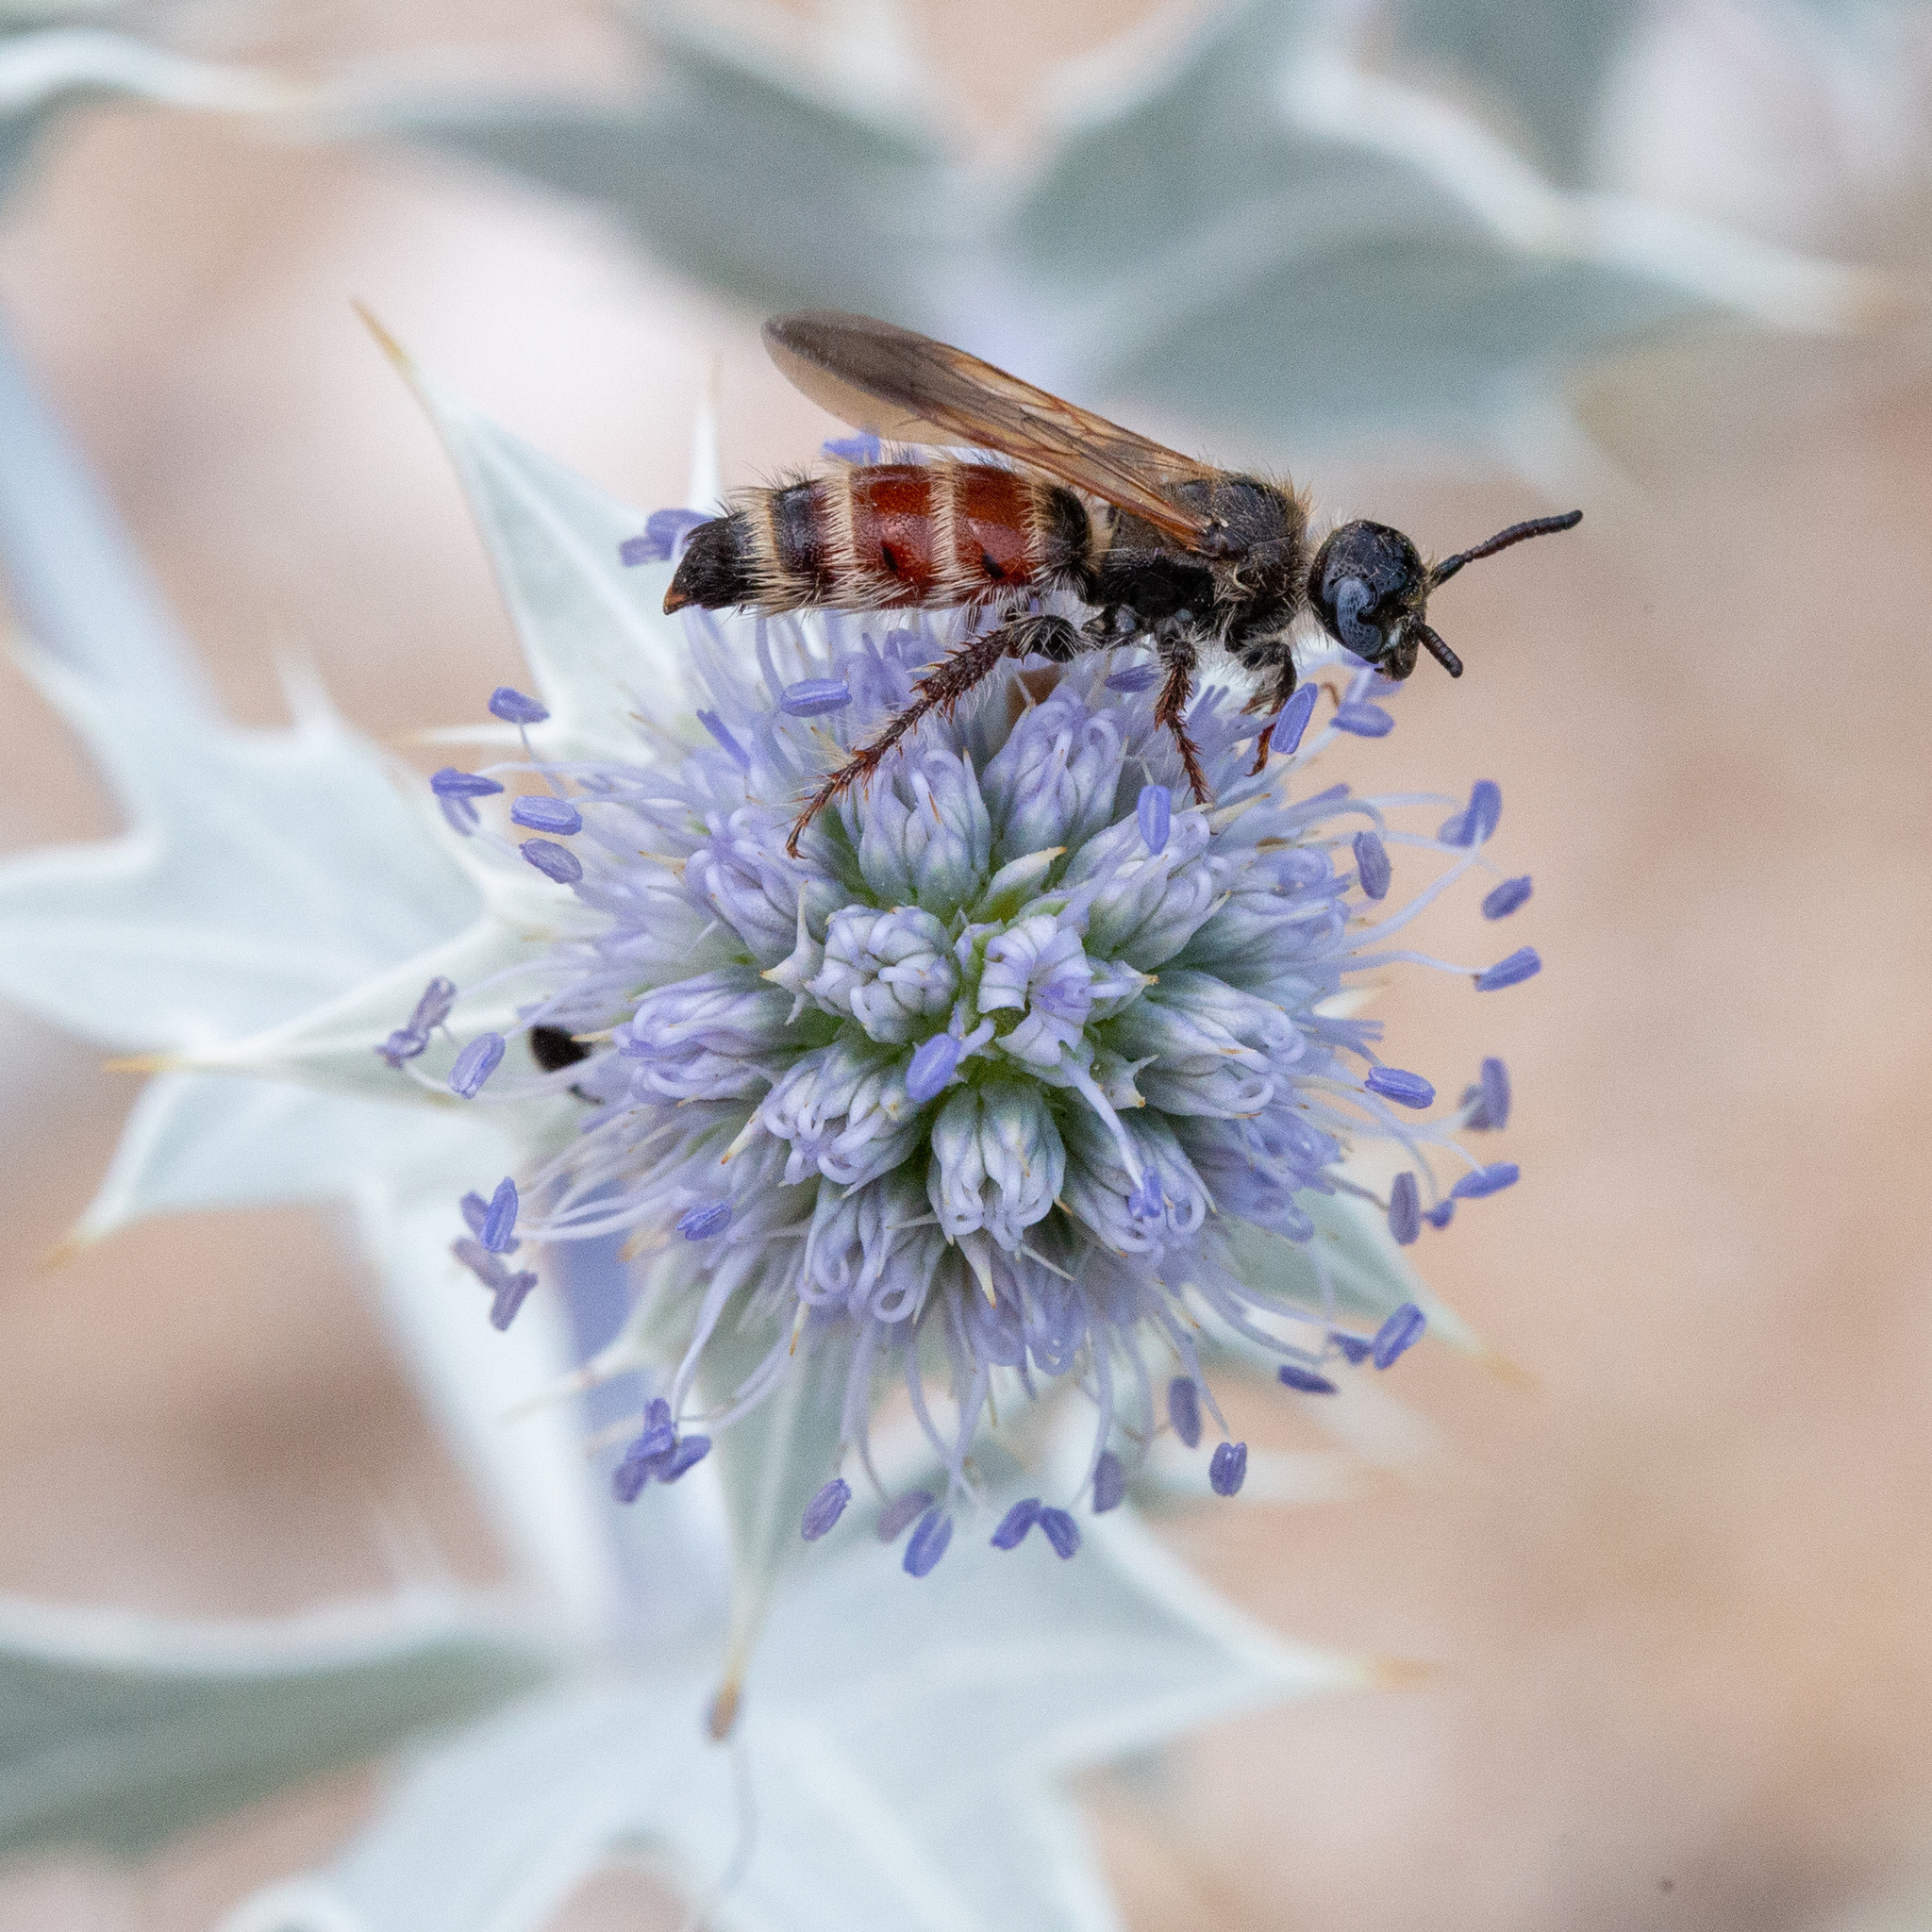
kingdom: Animalia
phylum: Arthropoda
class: Insecta
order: Hymenoptera
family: Scoliidae
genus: Colpa
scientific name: Colpa quinquecincta
